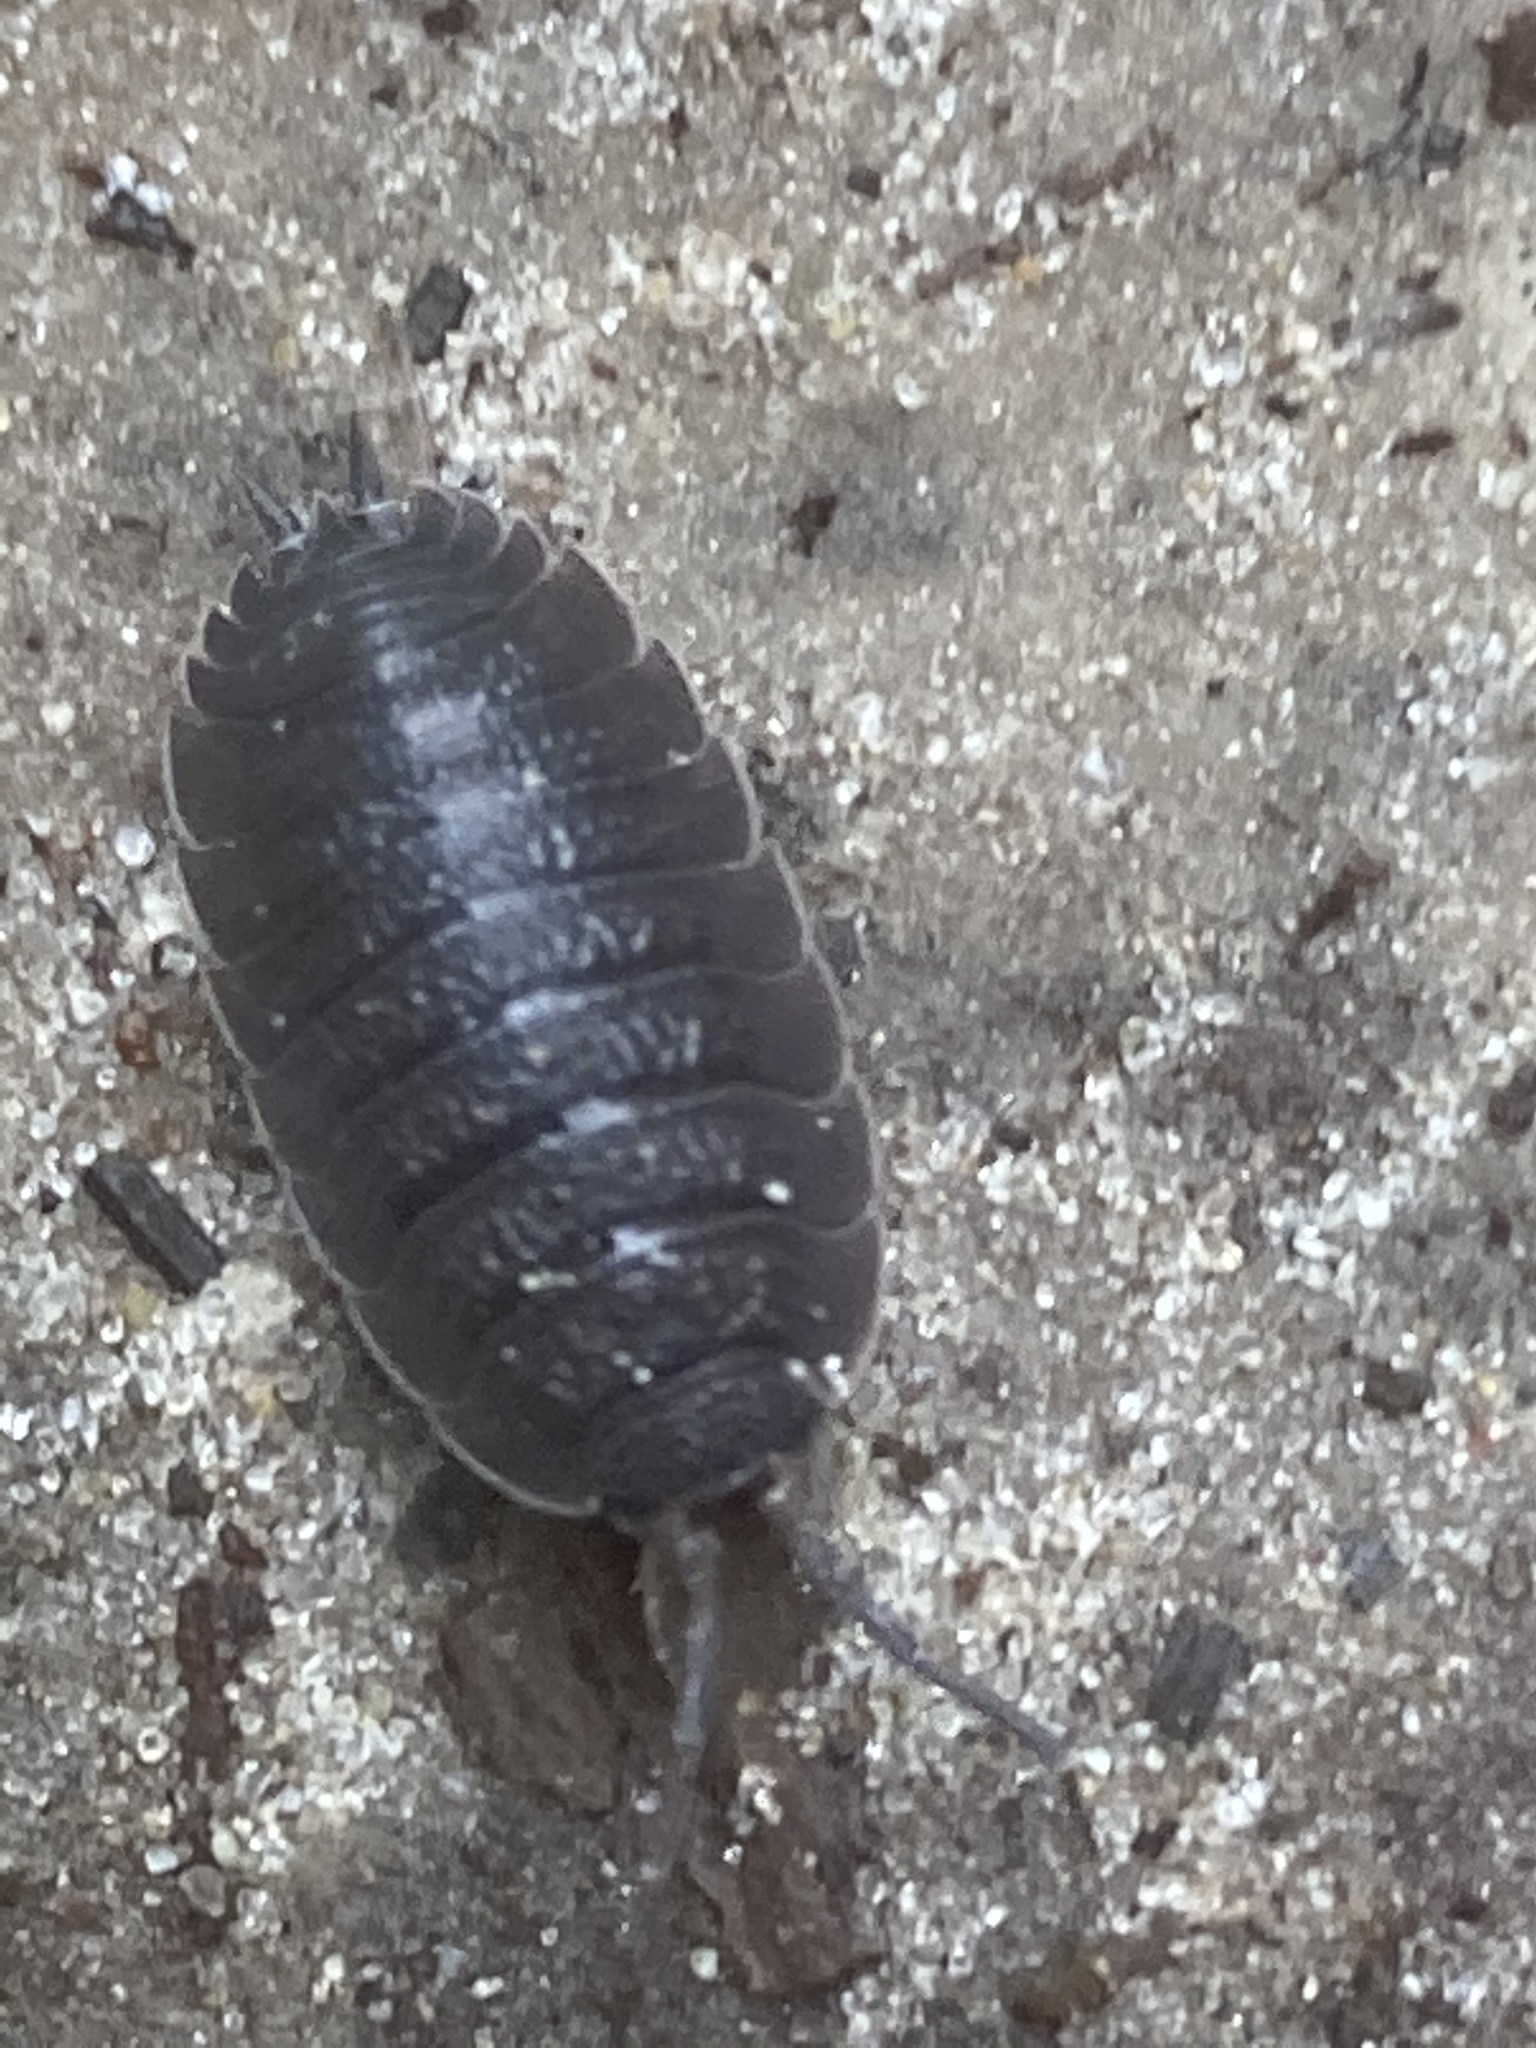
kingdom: Animalia
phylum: Arthropoda
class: Malacostraca
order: Isopoda
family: Porcellionidae
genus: Porcellio
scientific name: Porcellio scaber
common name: Common rough woodlouse
